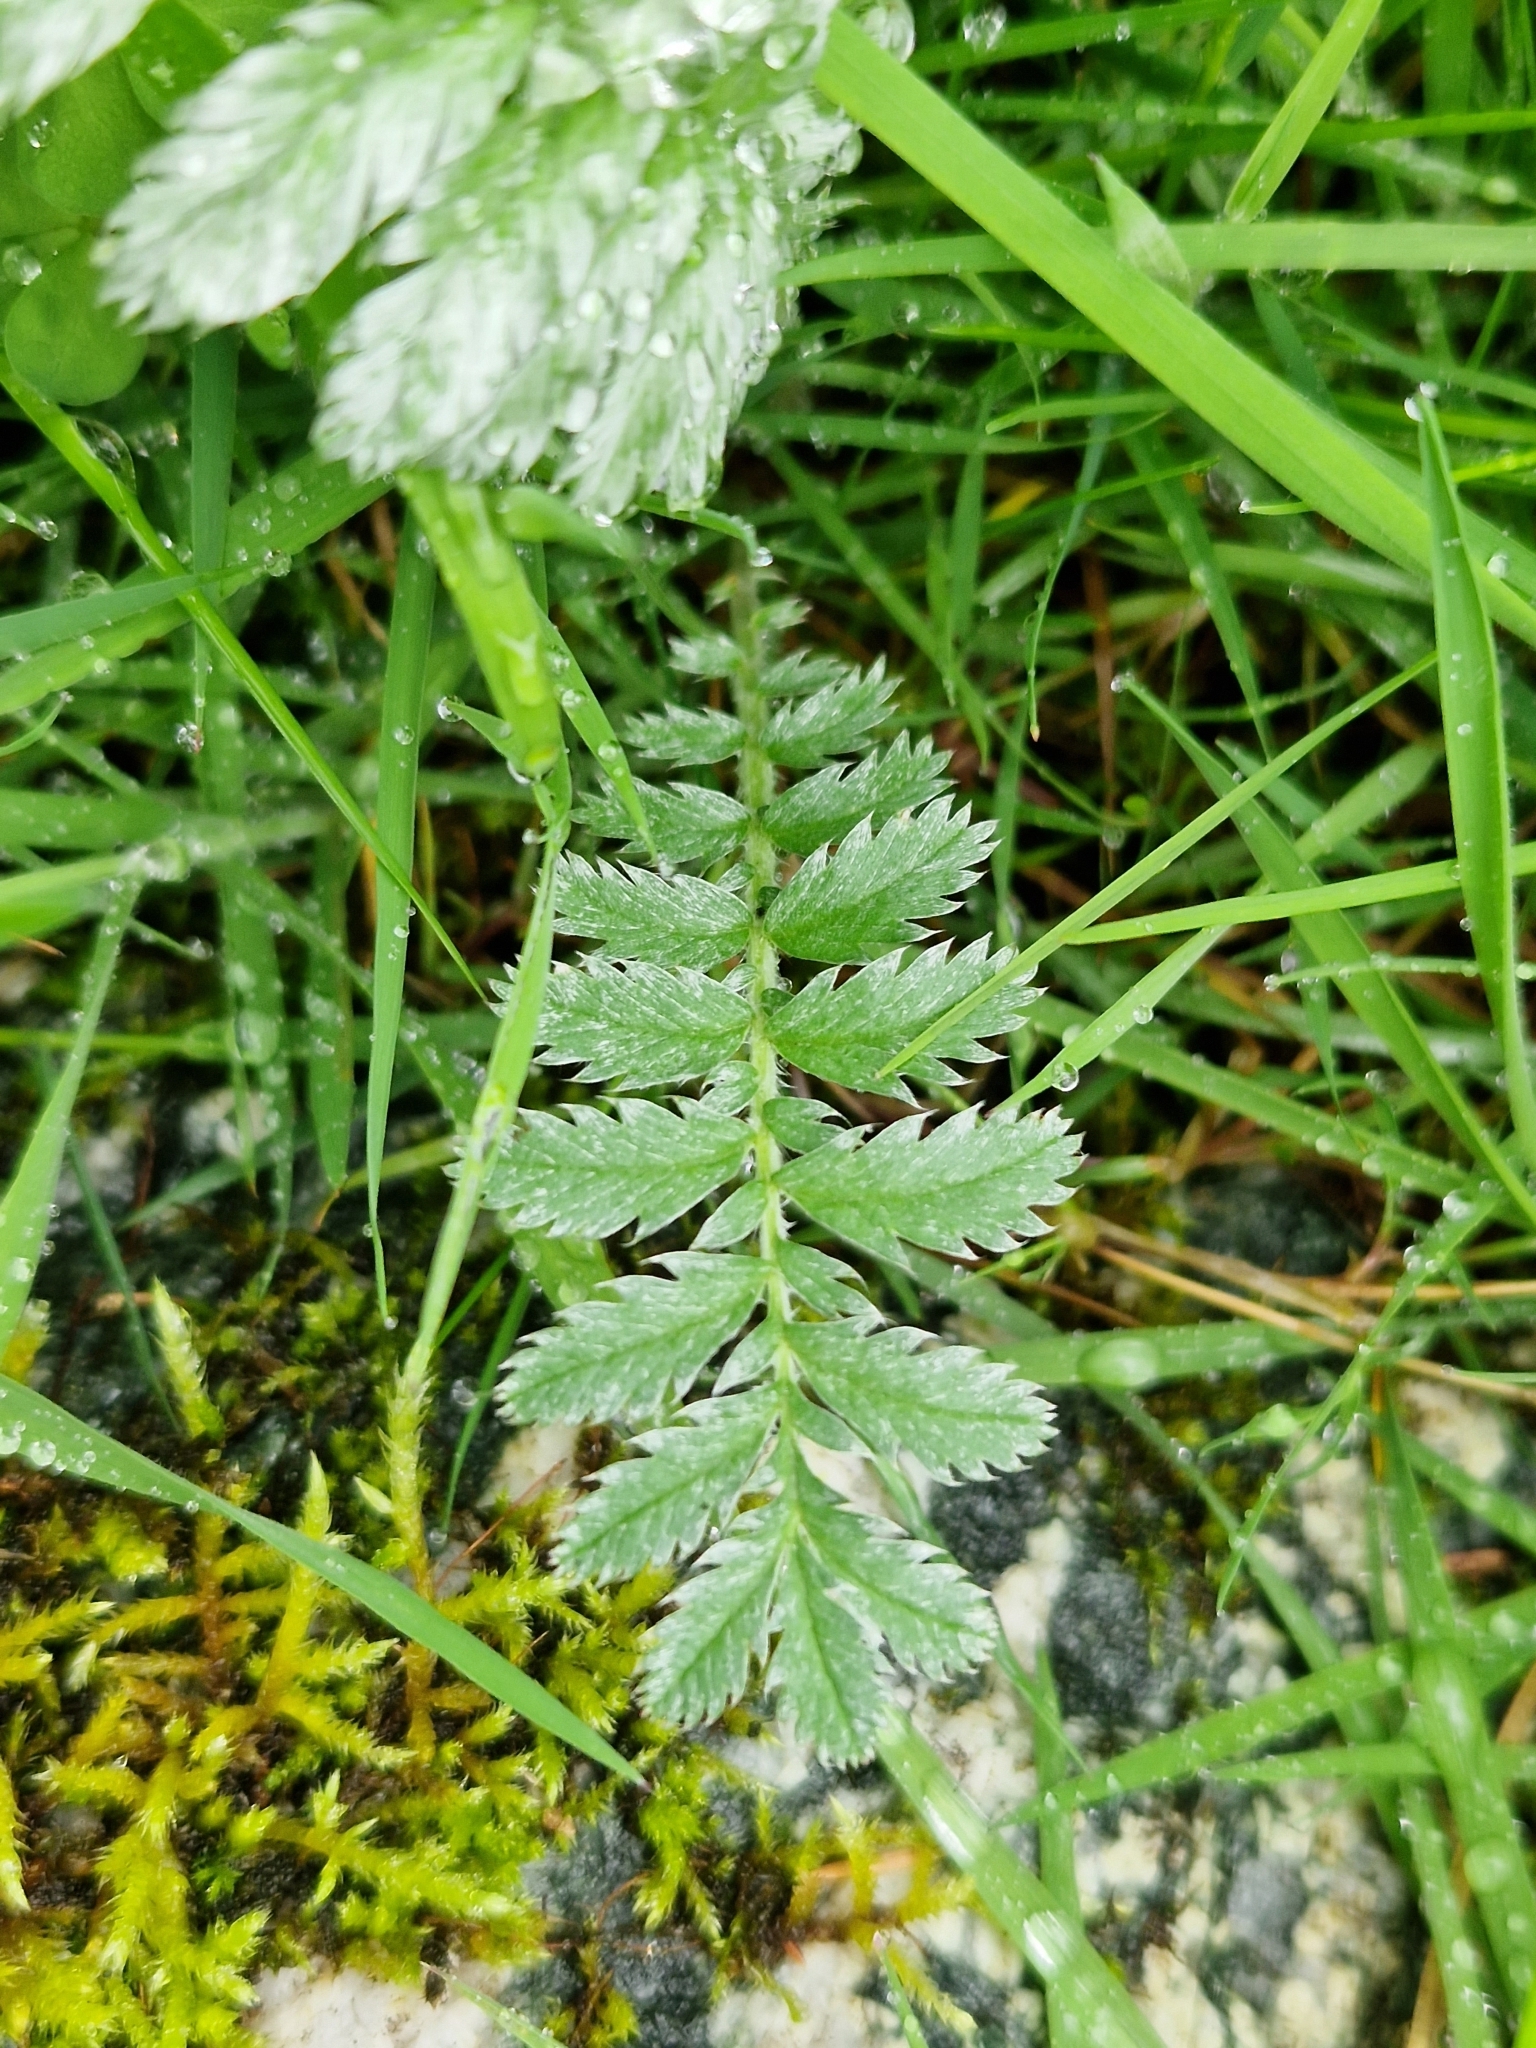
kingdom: Plantae
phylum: Tracheophyta
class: Magnoliopsida
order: Rosales
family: Rosaceae
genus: Argentina
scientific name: Argentina anserina
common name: Common silverweed
